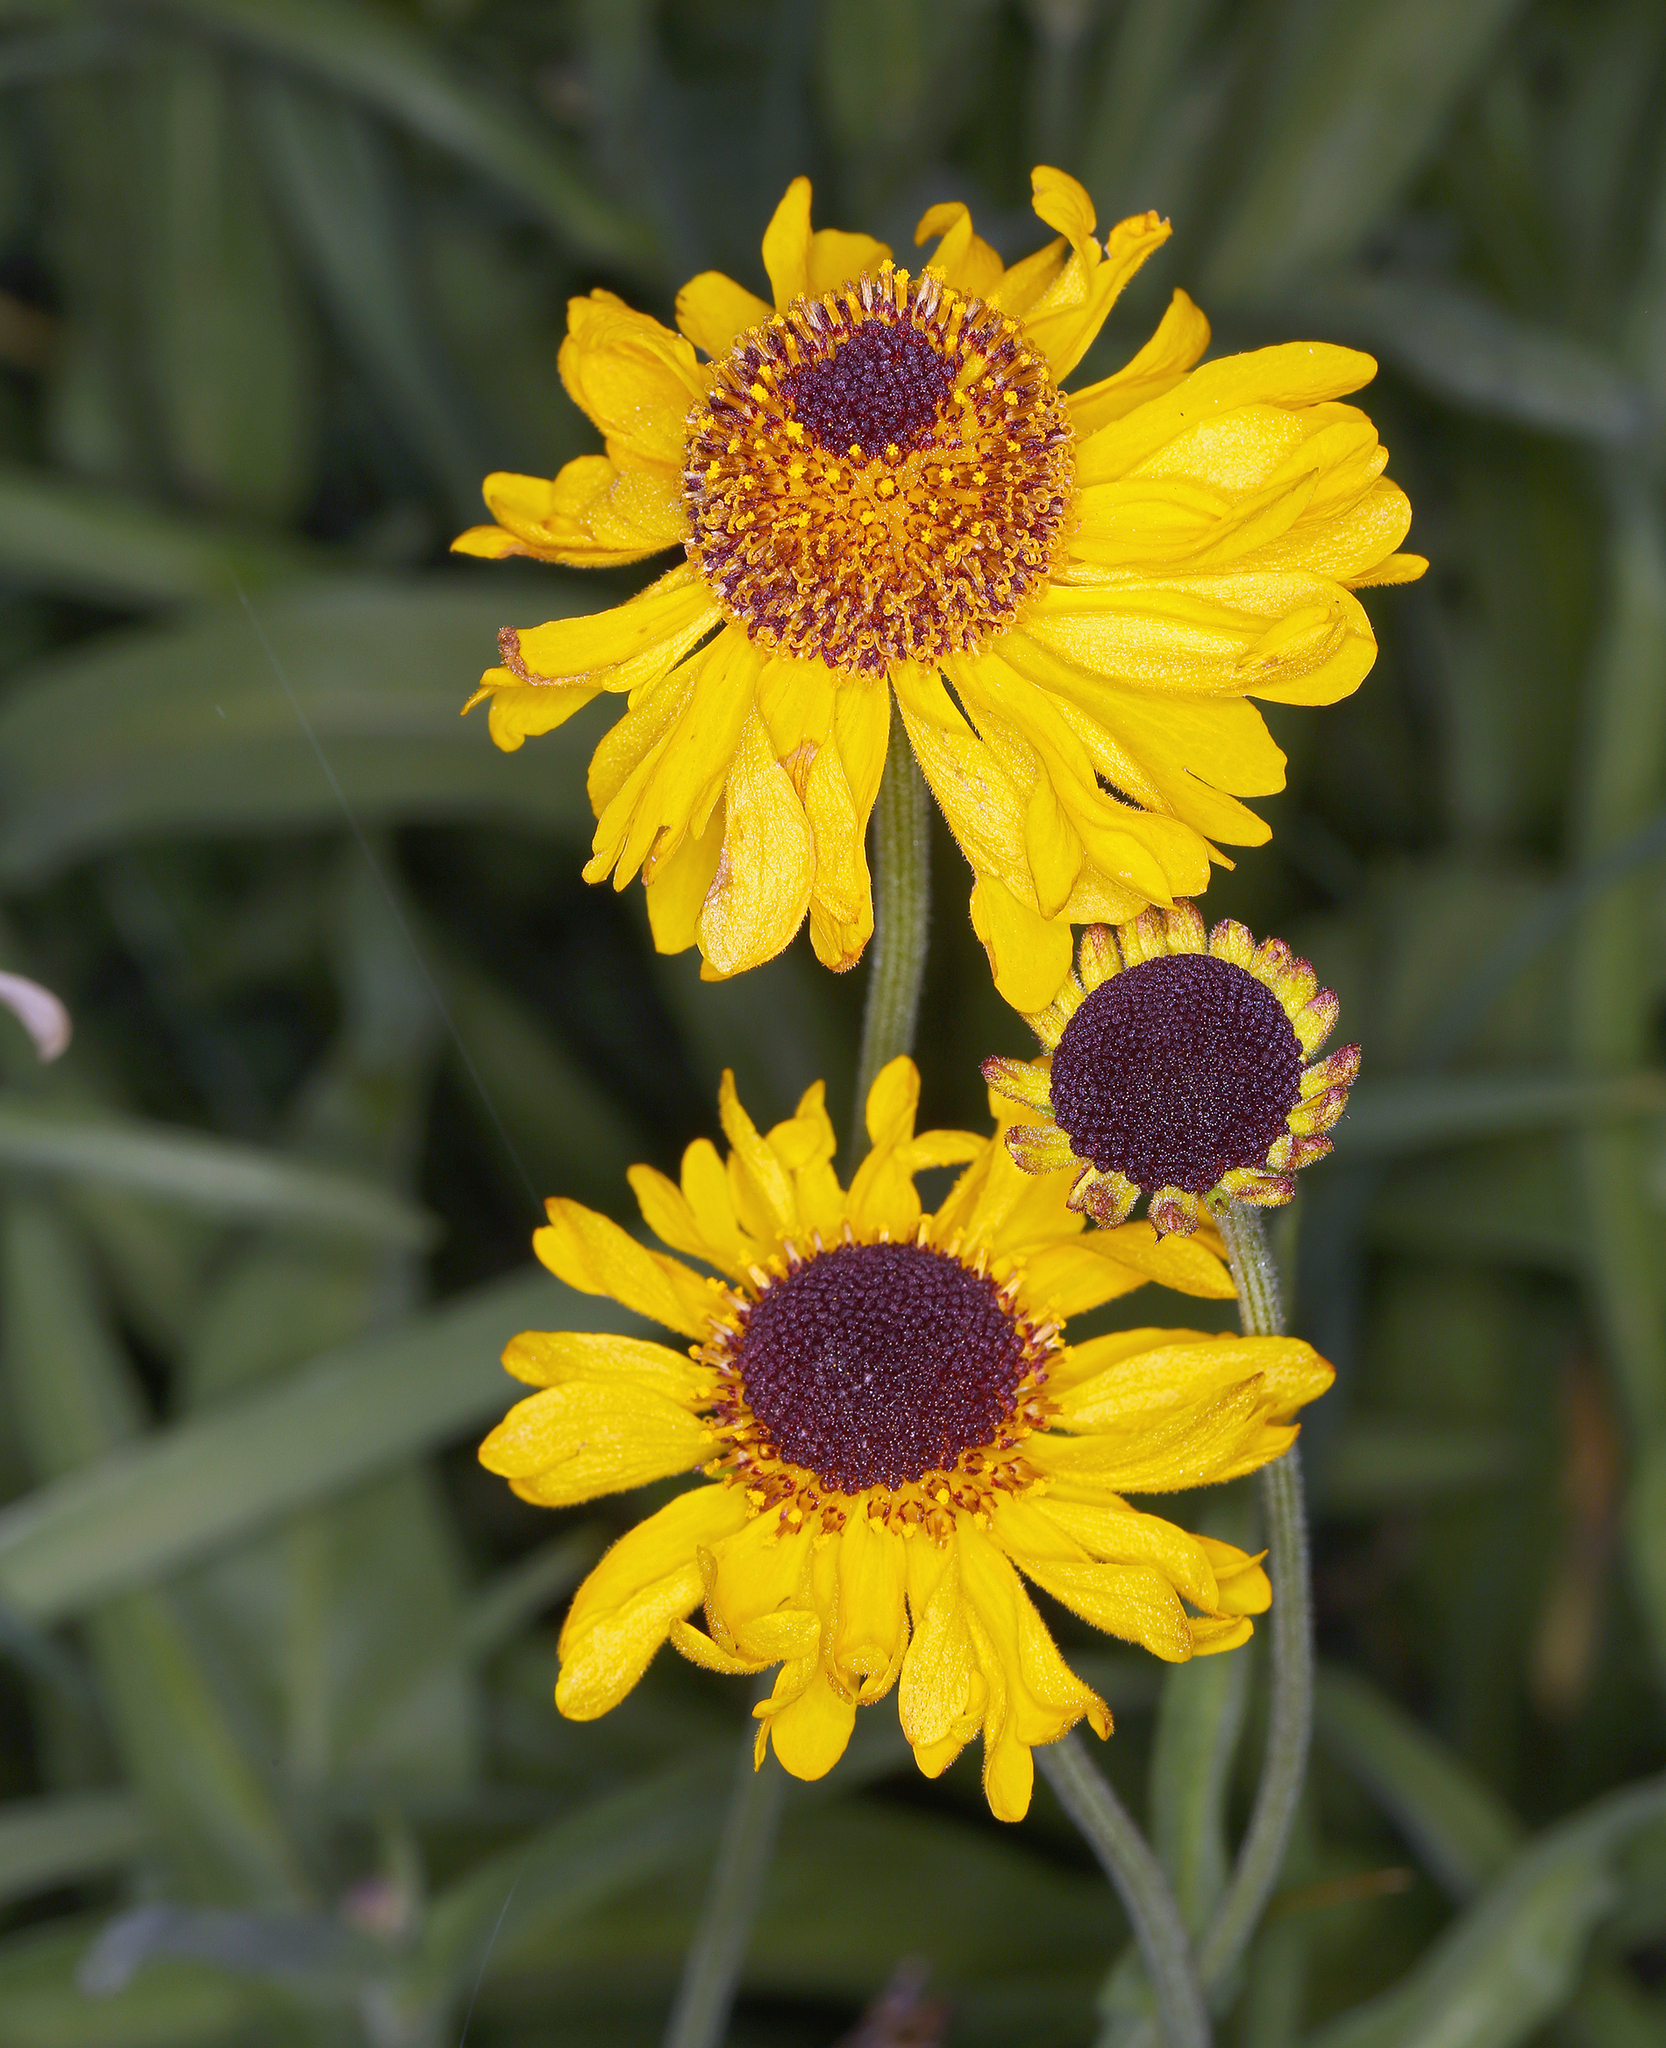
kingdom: Plantae
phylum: Tracheophyta
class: Magnoliopsida
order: Asterales
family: Asteraceae
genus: Helenium
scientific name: Helenium bigelovii
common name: Bigelow's sneezeweed
